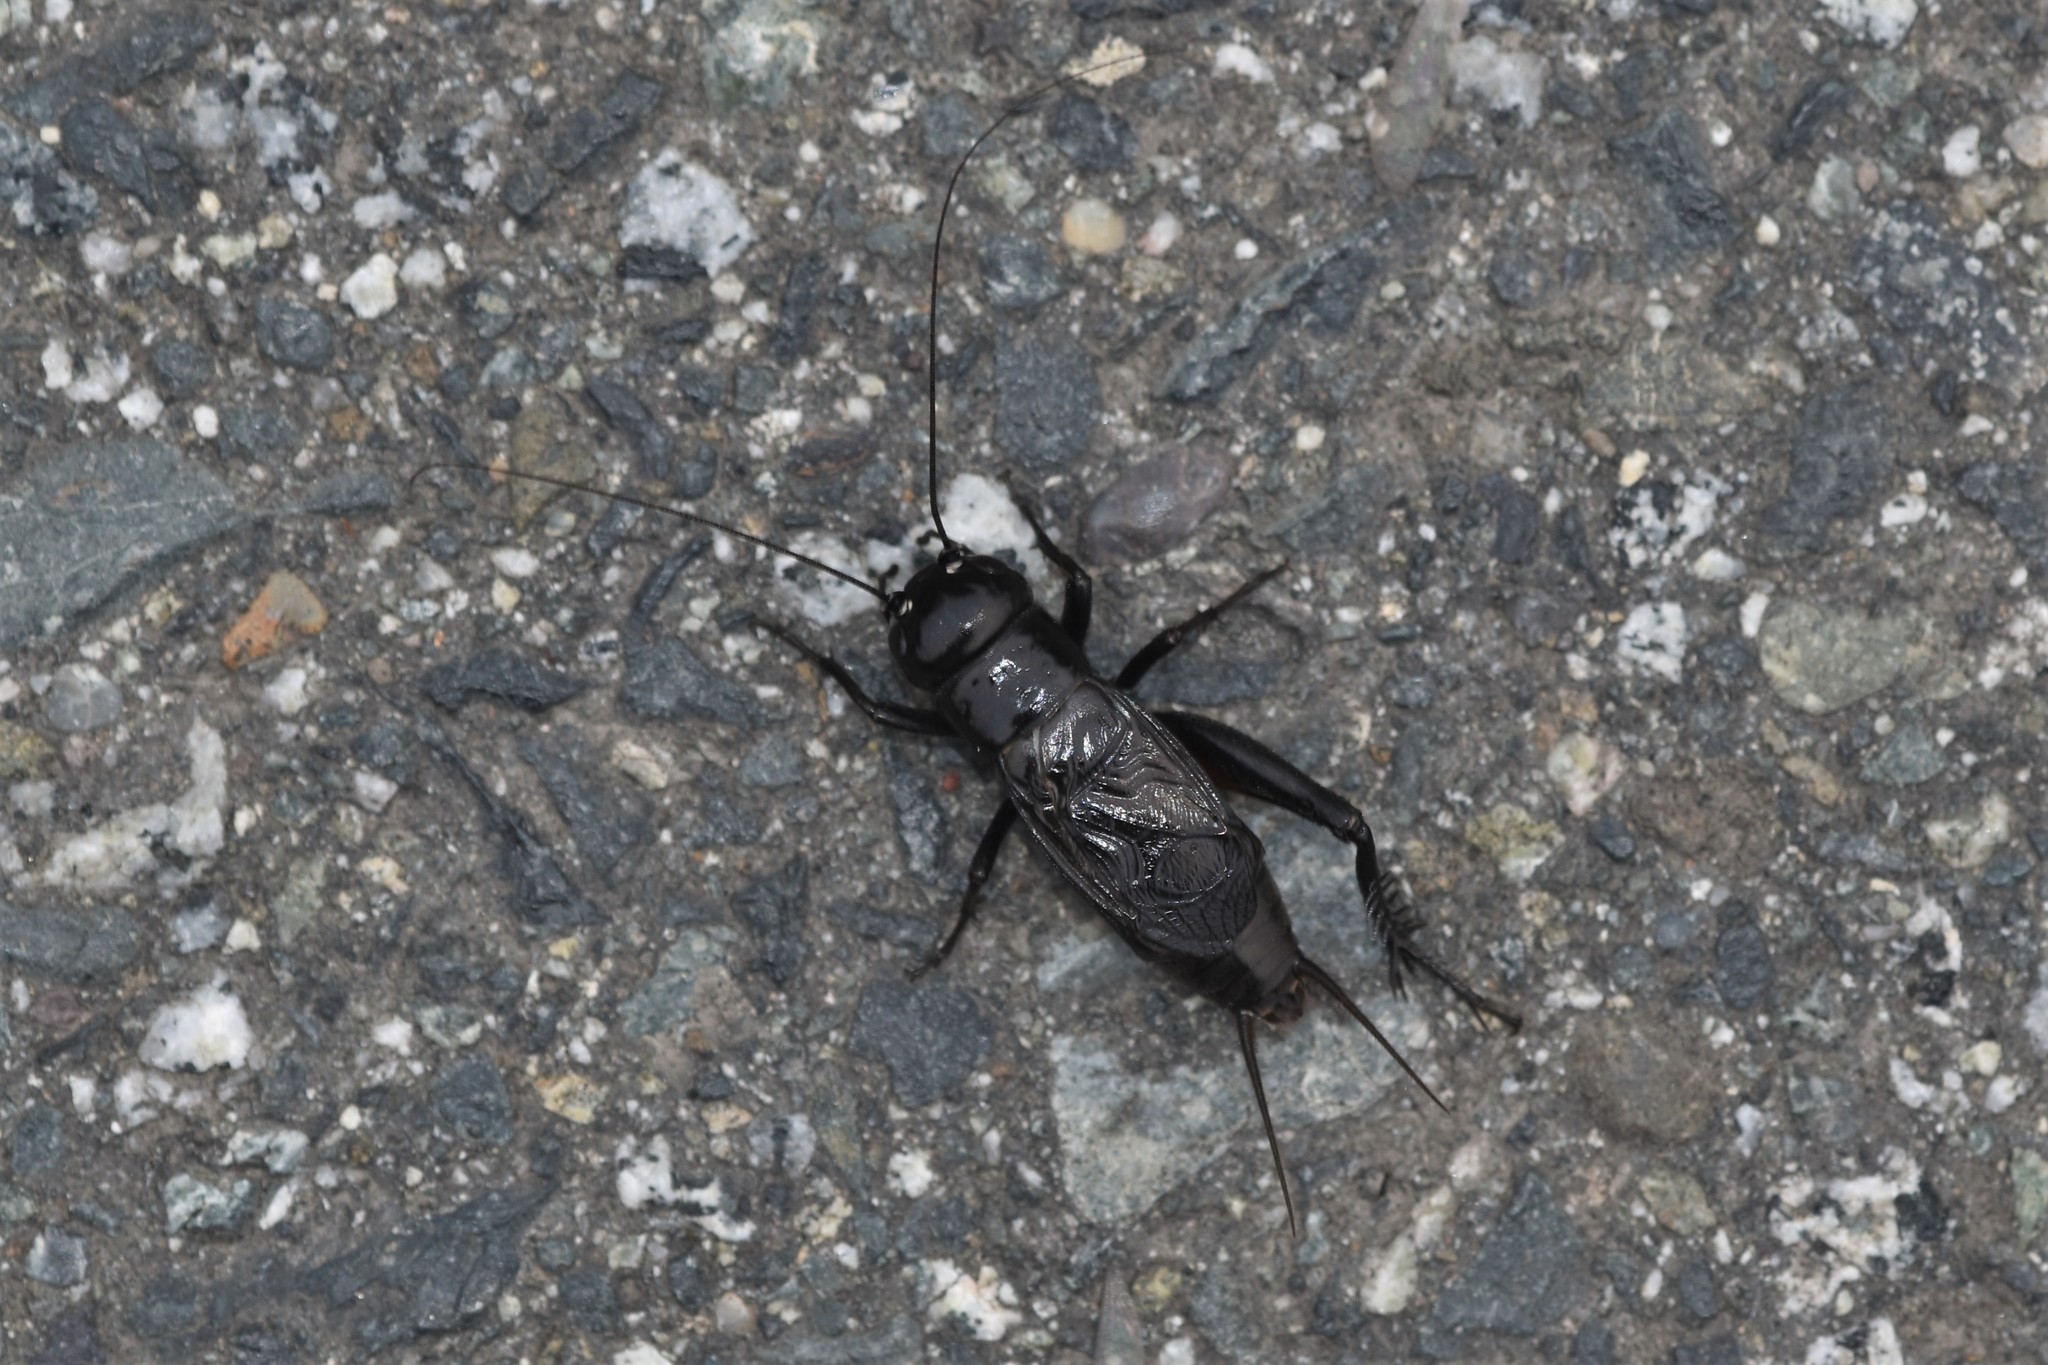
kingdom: Animalia
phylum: Arthropoda
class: Insecta
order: Orthoptera
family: Gryllidae
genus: Gryllus
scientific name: Gryllus pennsylvanicus
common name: Fall field cricket
